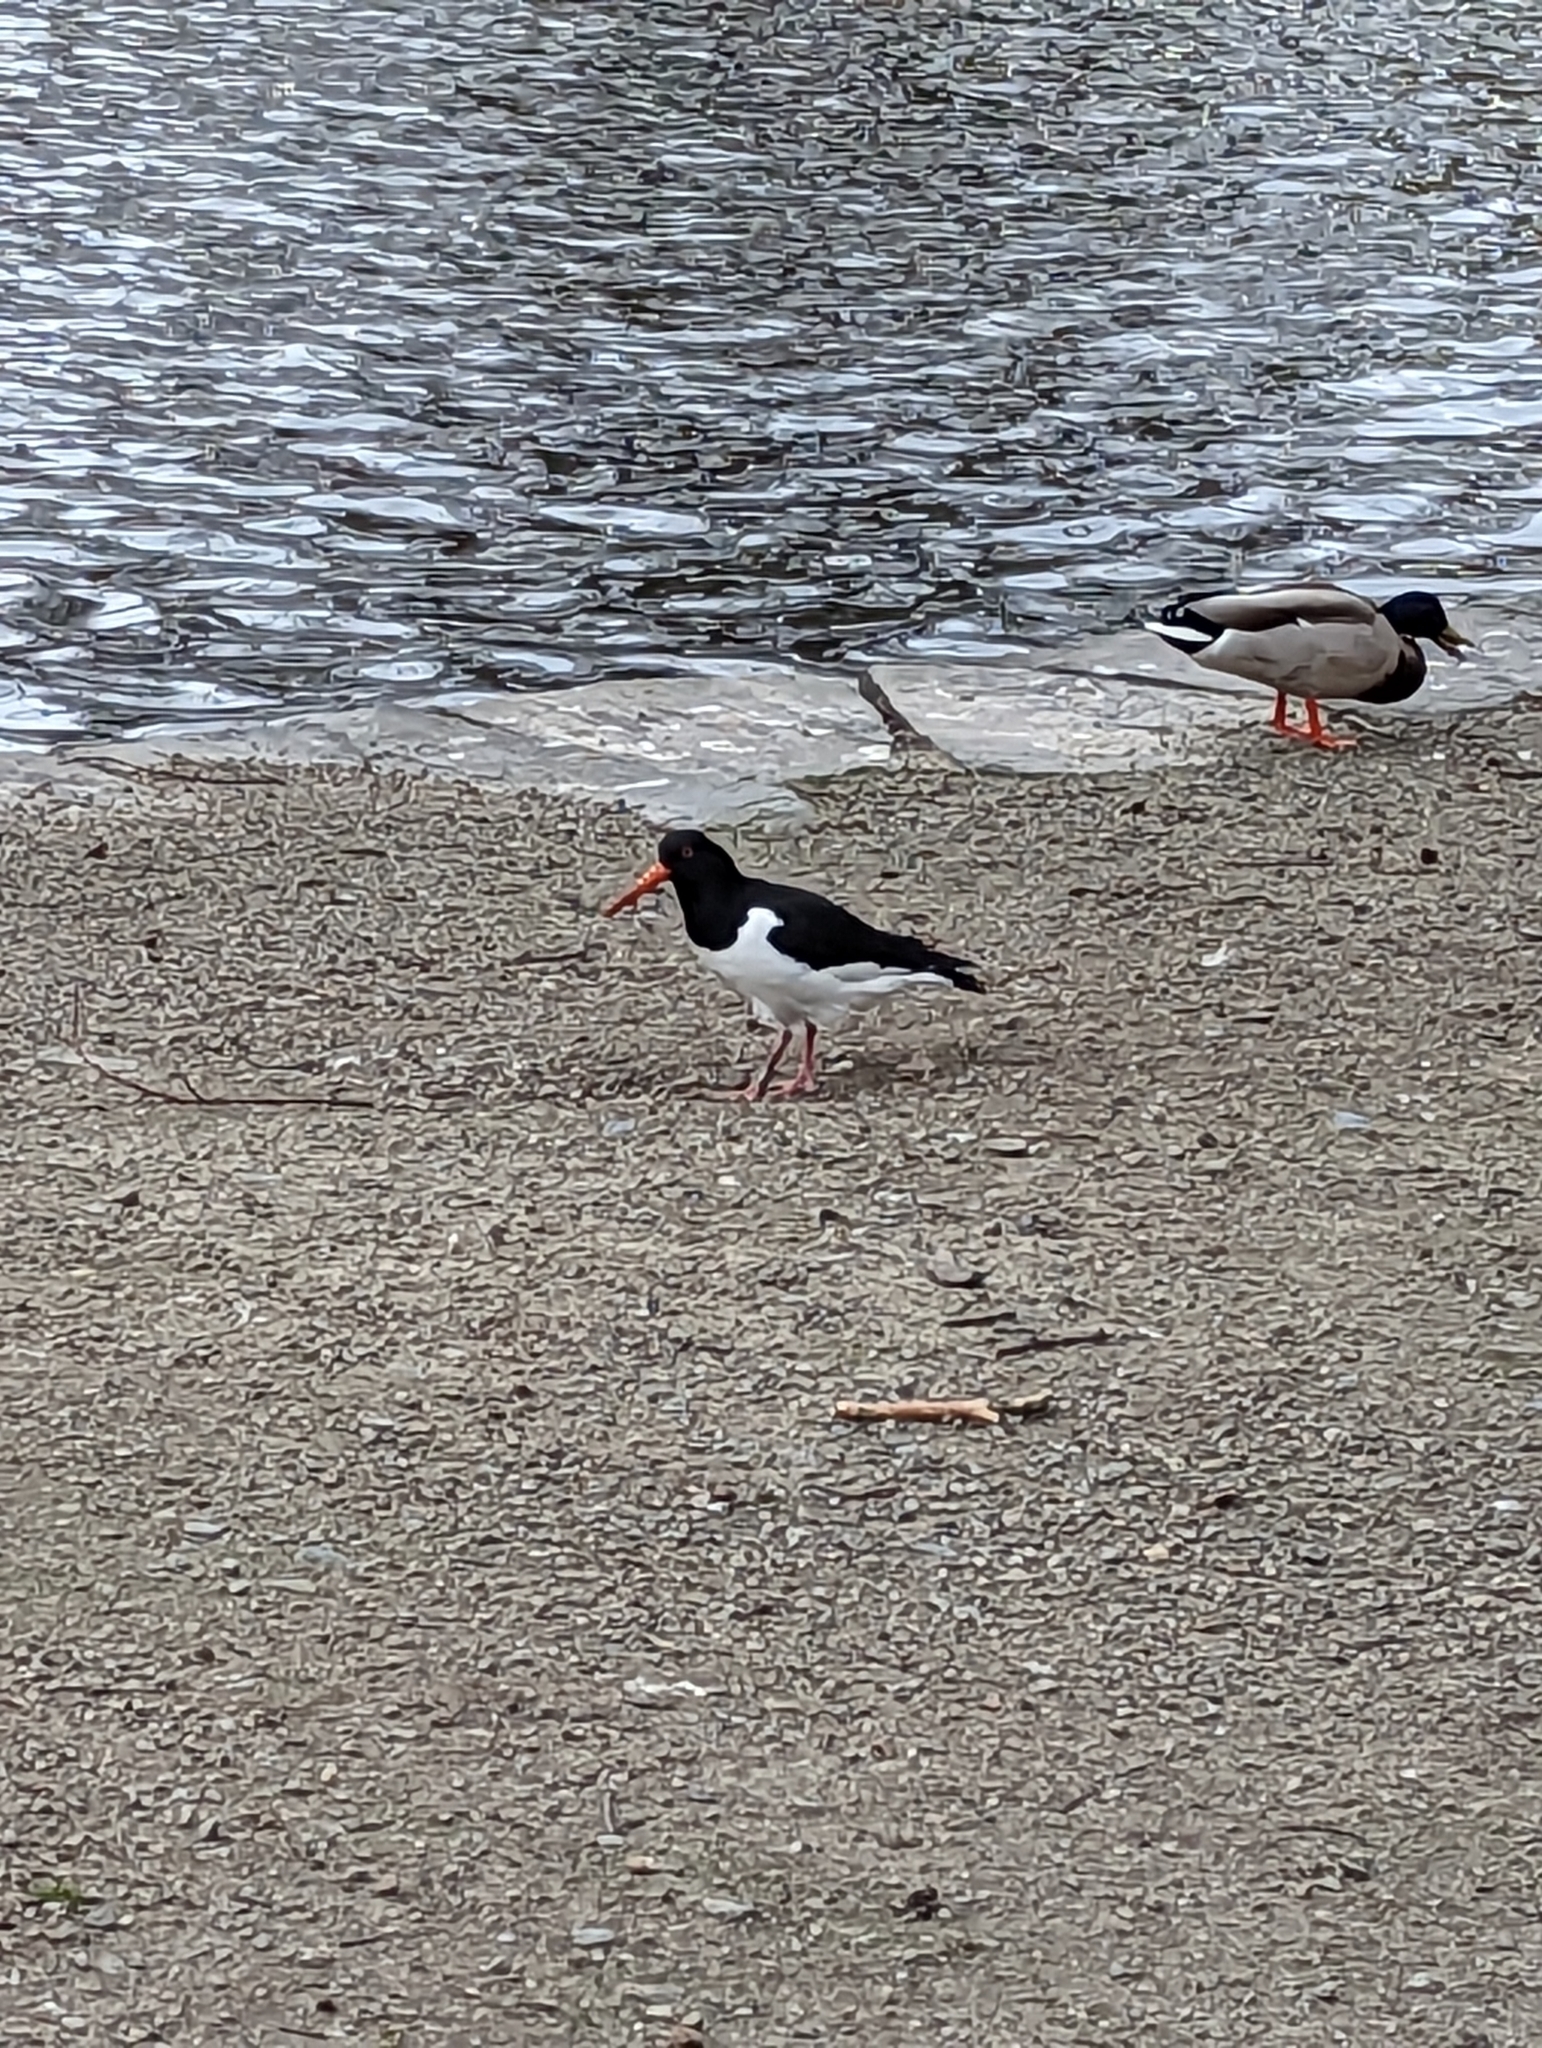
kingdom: Animalia
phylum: Chordata
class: Aves
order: Charadriiformes
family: Haematopodidae
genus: Haematopus
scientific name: Haematopus ostralegus
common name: Eurasian oystercatcher
